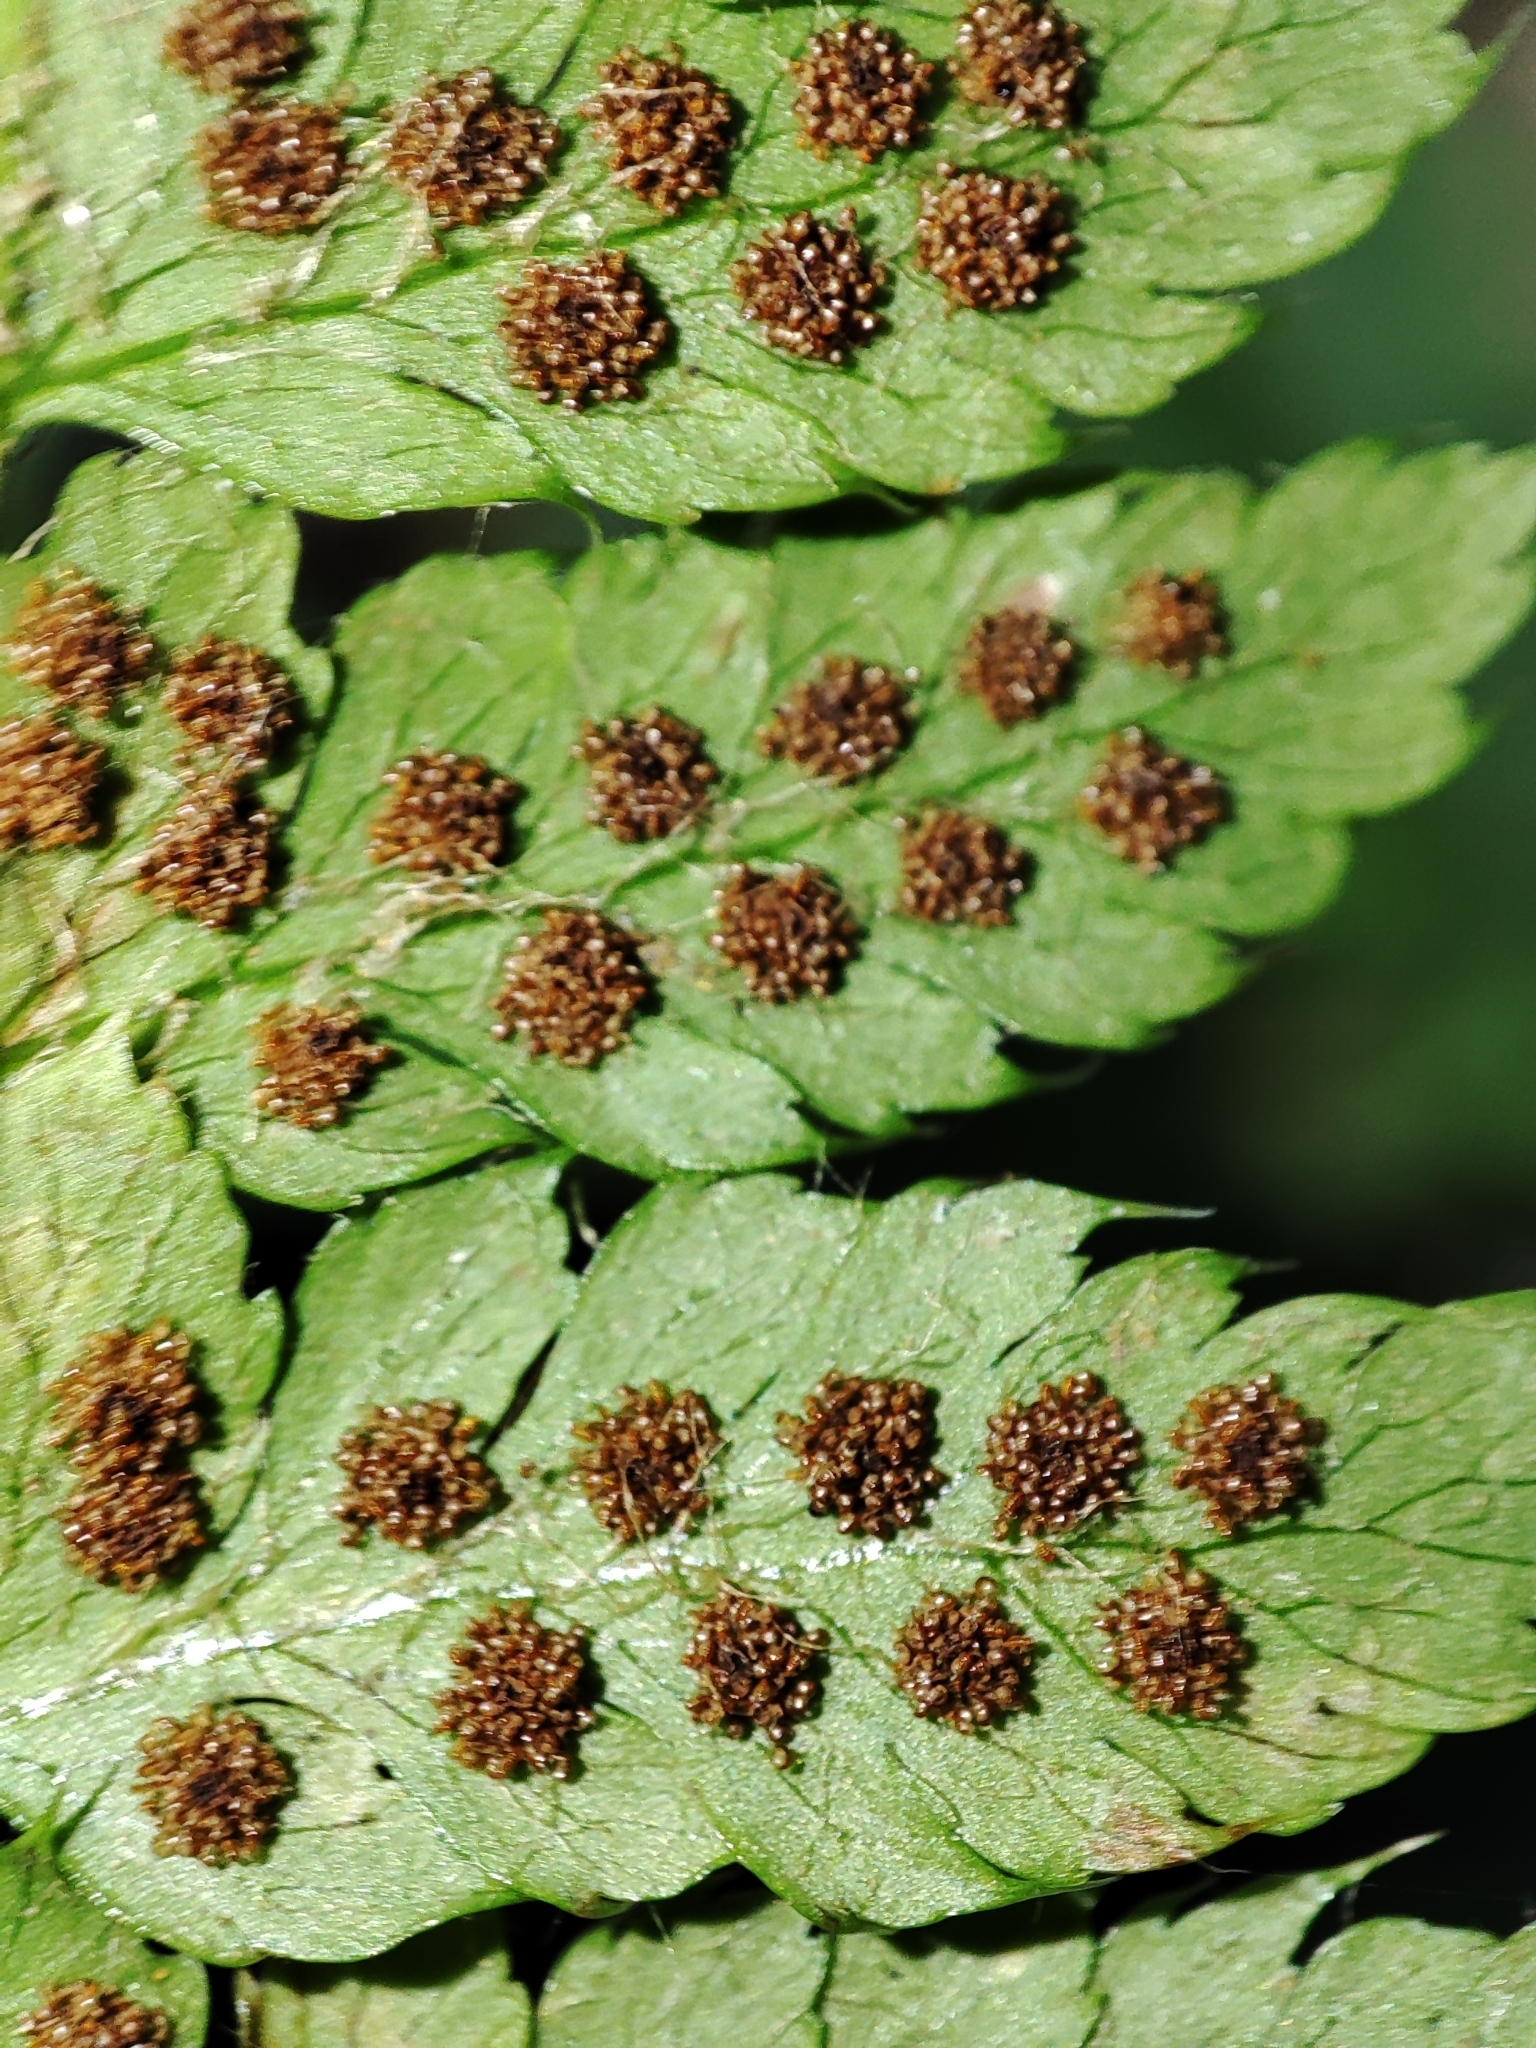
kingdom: Plantae
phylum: Tracheophyta
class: Polypodiopsida
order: Polypodiales
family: Dryopteridaceae
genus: Polystichum
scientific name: Polystichum braunii
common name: Braun's holly fern
